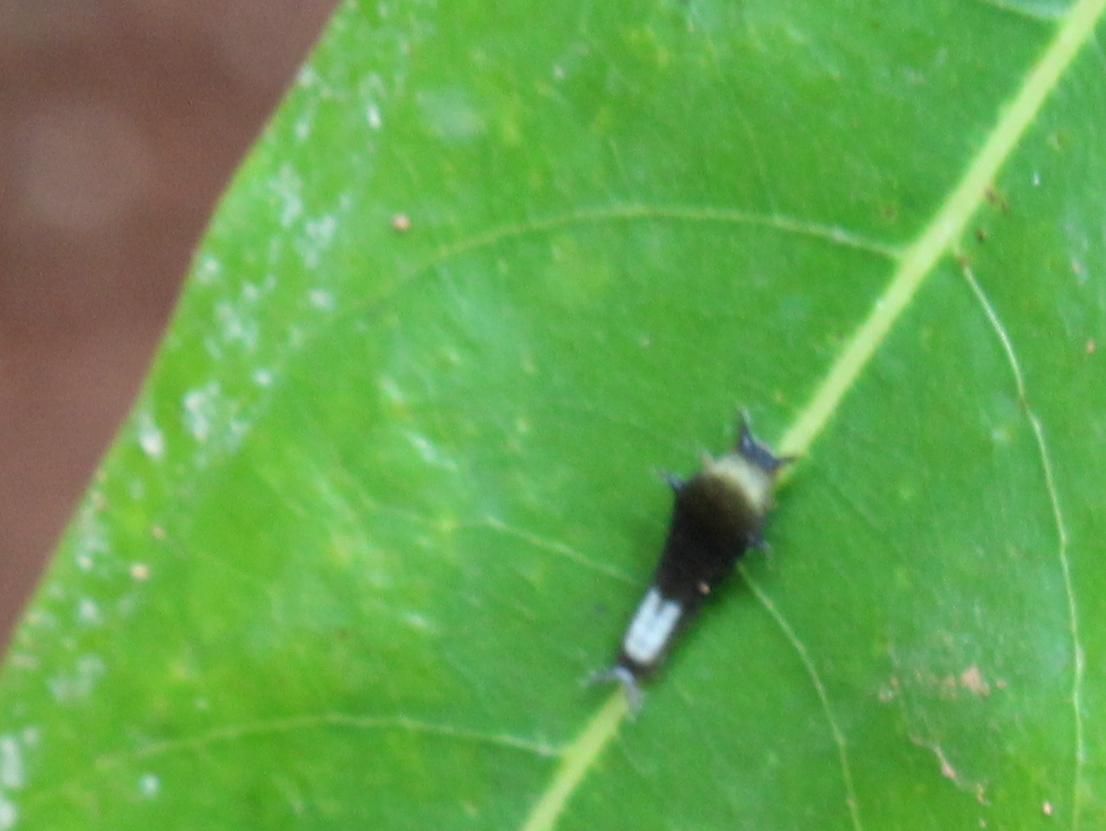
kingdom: Animalia
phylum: Arthropoda
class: Insecta
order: Lepidoptera
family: Papilionidae
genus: Graphium
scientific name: Graphium agamemnon
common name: Tailed jay
